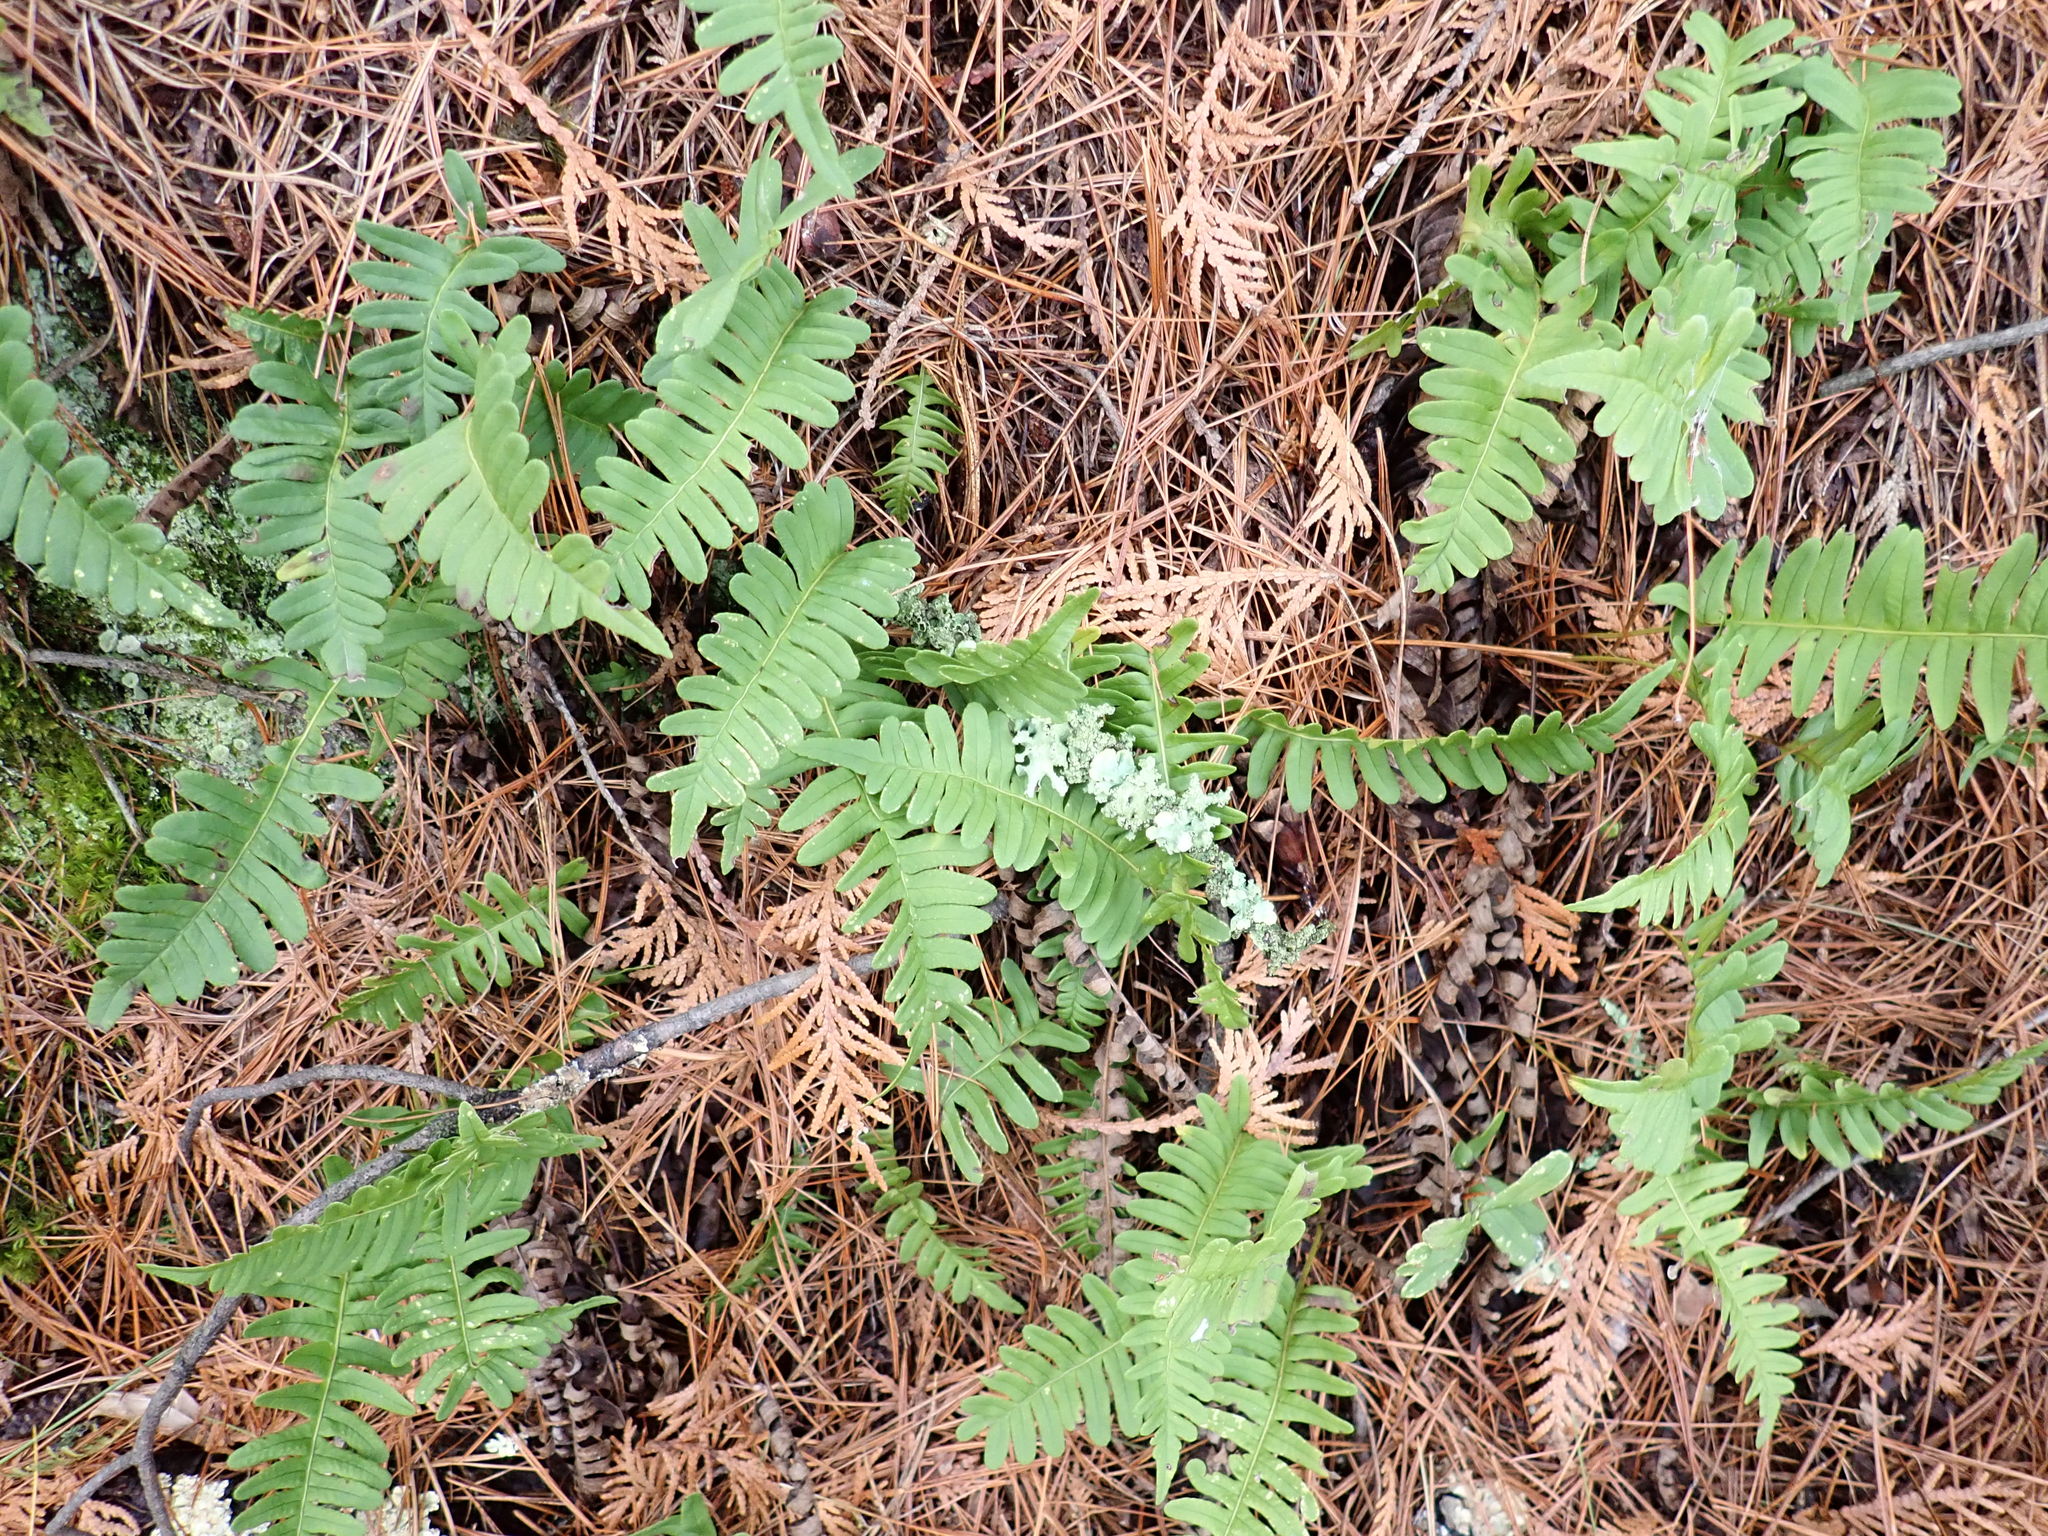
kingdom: Plantae
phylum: Tracheophyta
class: Polypodiopsida
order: Polypodiales
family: Polypodiaceae
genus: Polypodium
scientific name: Polypodium virginianum
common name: American wall fern
